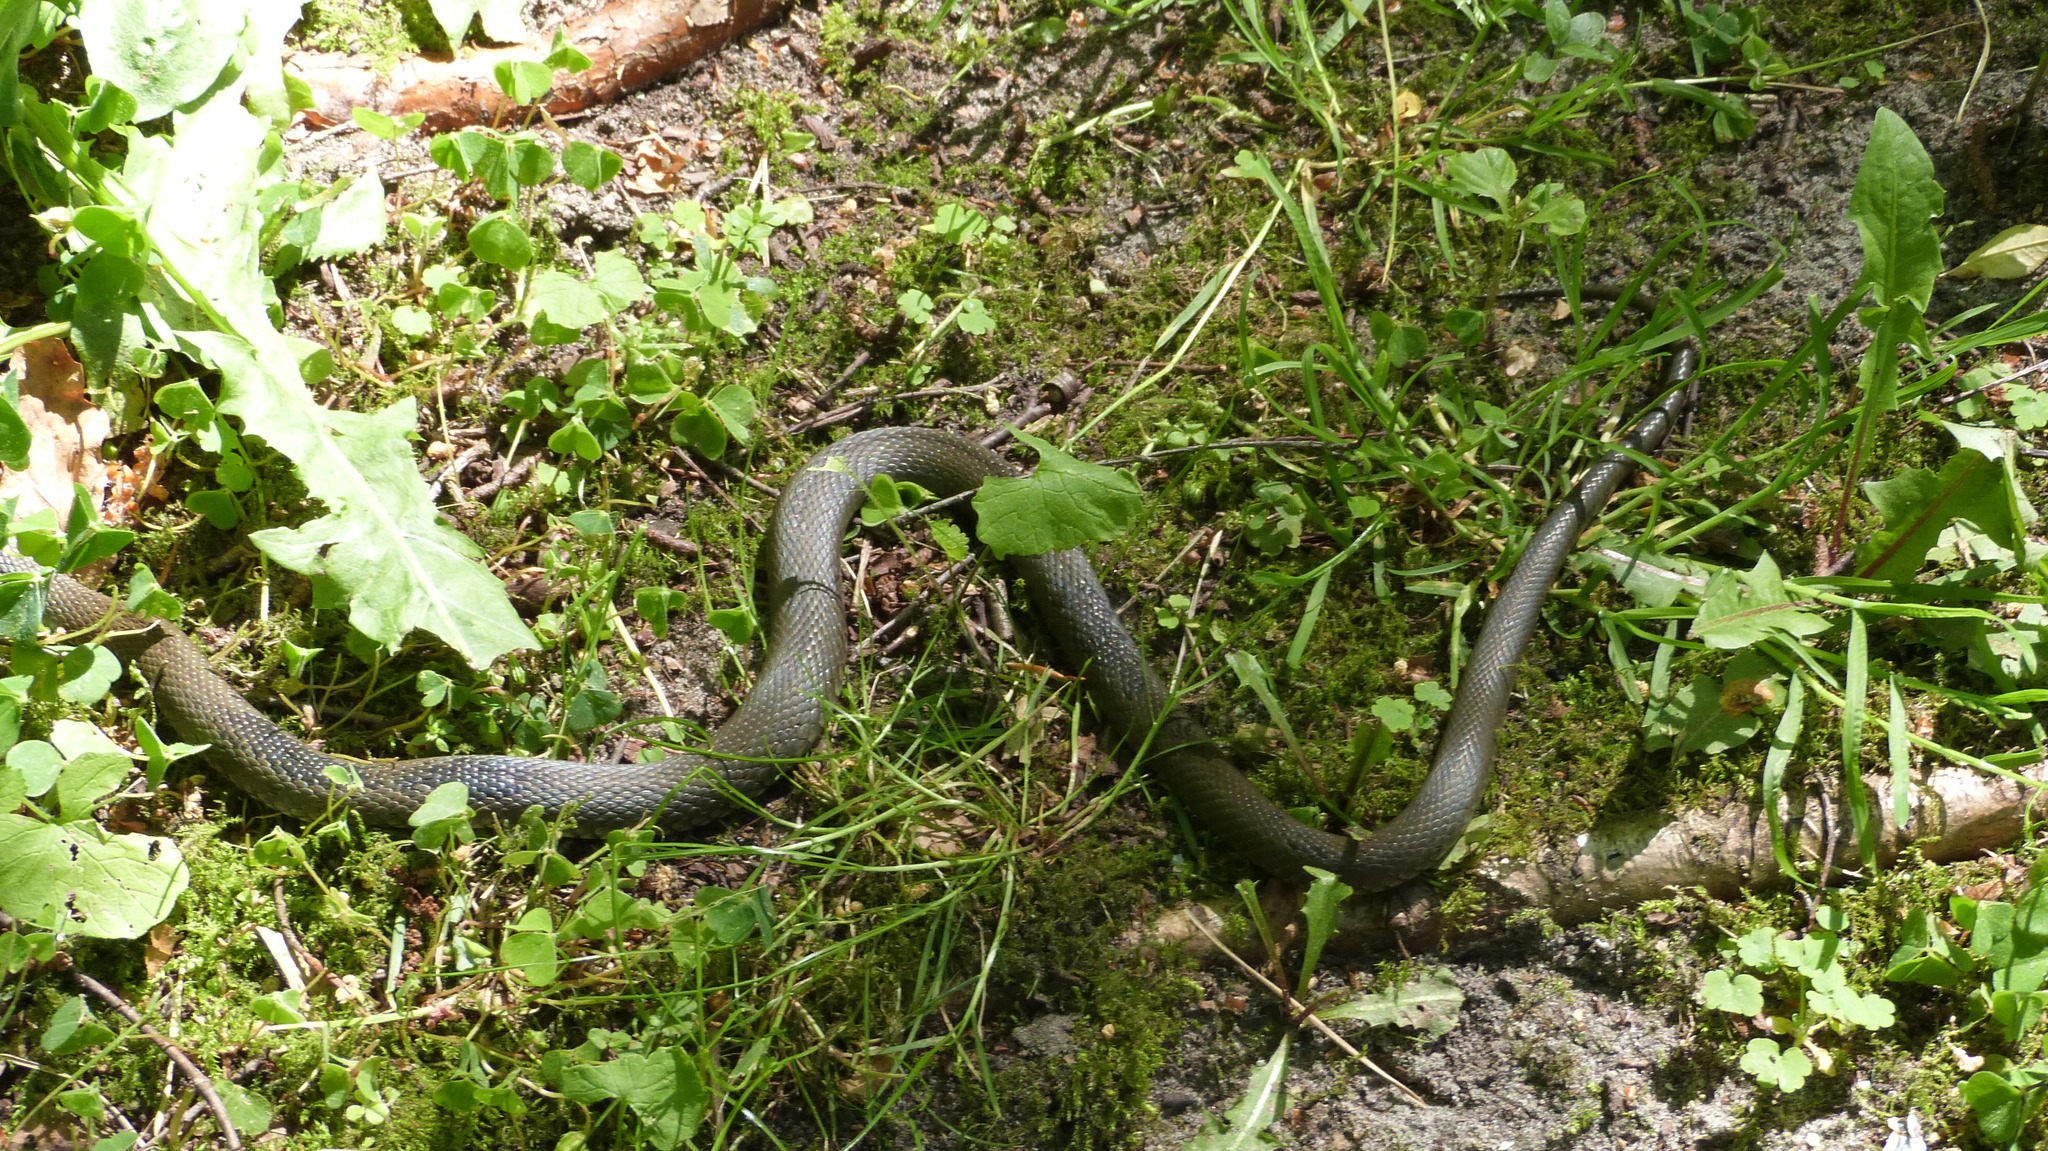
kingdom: Animalia
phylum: Chordata
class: Squamata
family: Colubridae
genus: Natrix
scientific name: Natrix natrix
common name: Grass snake
